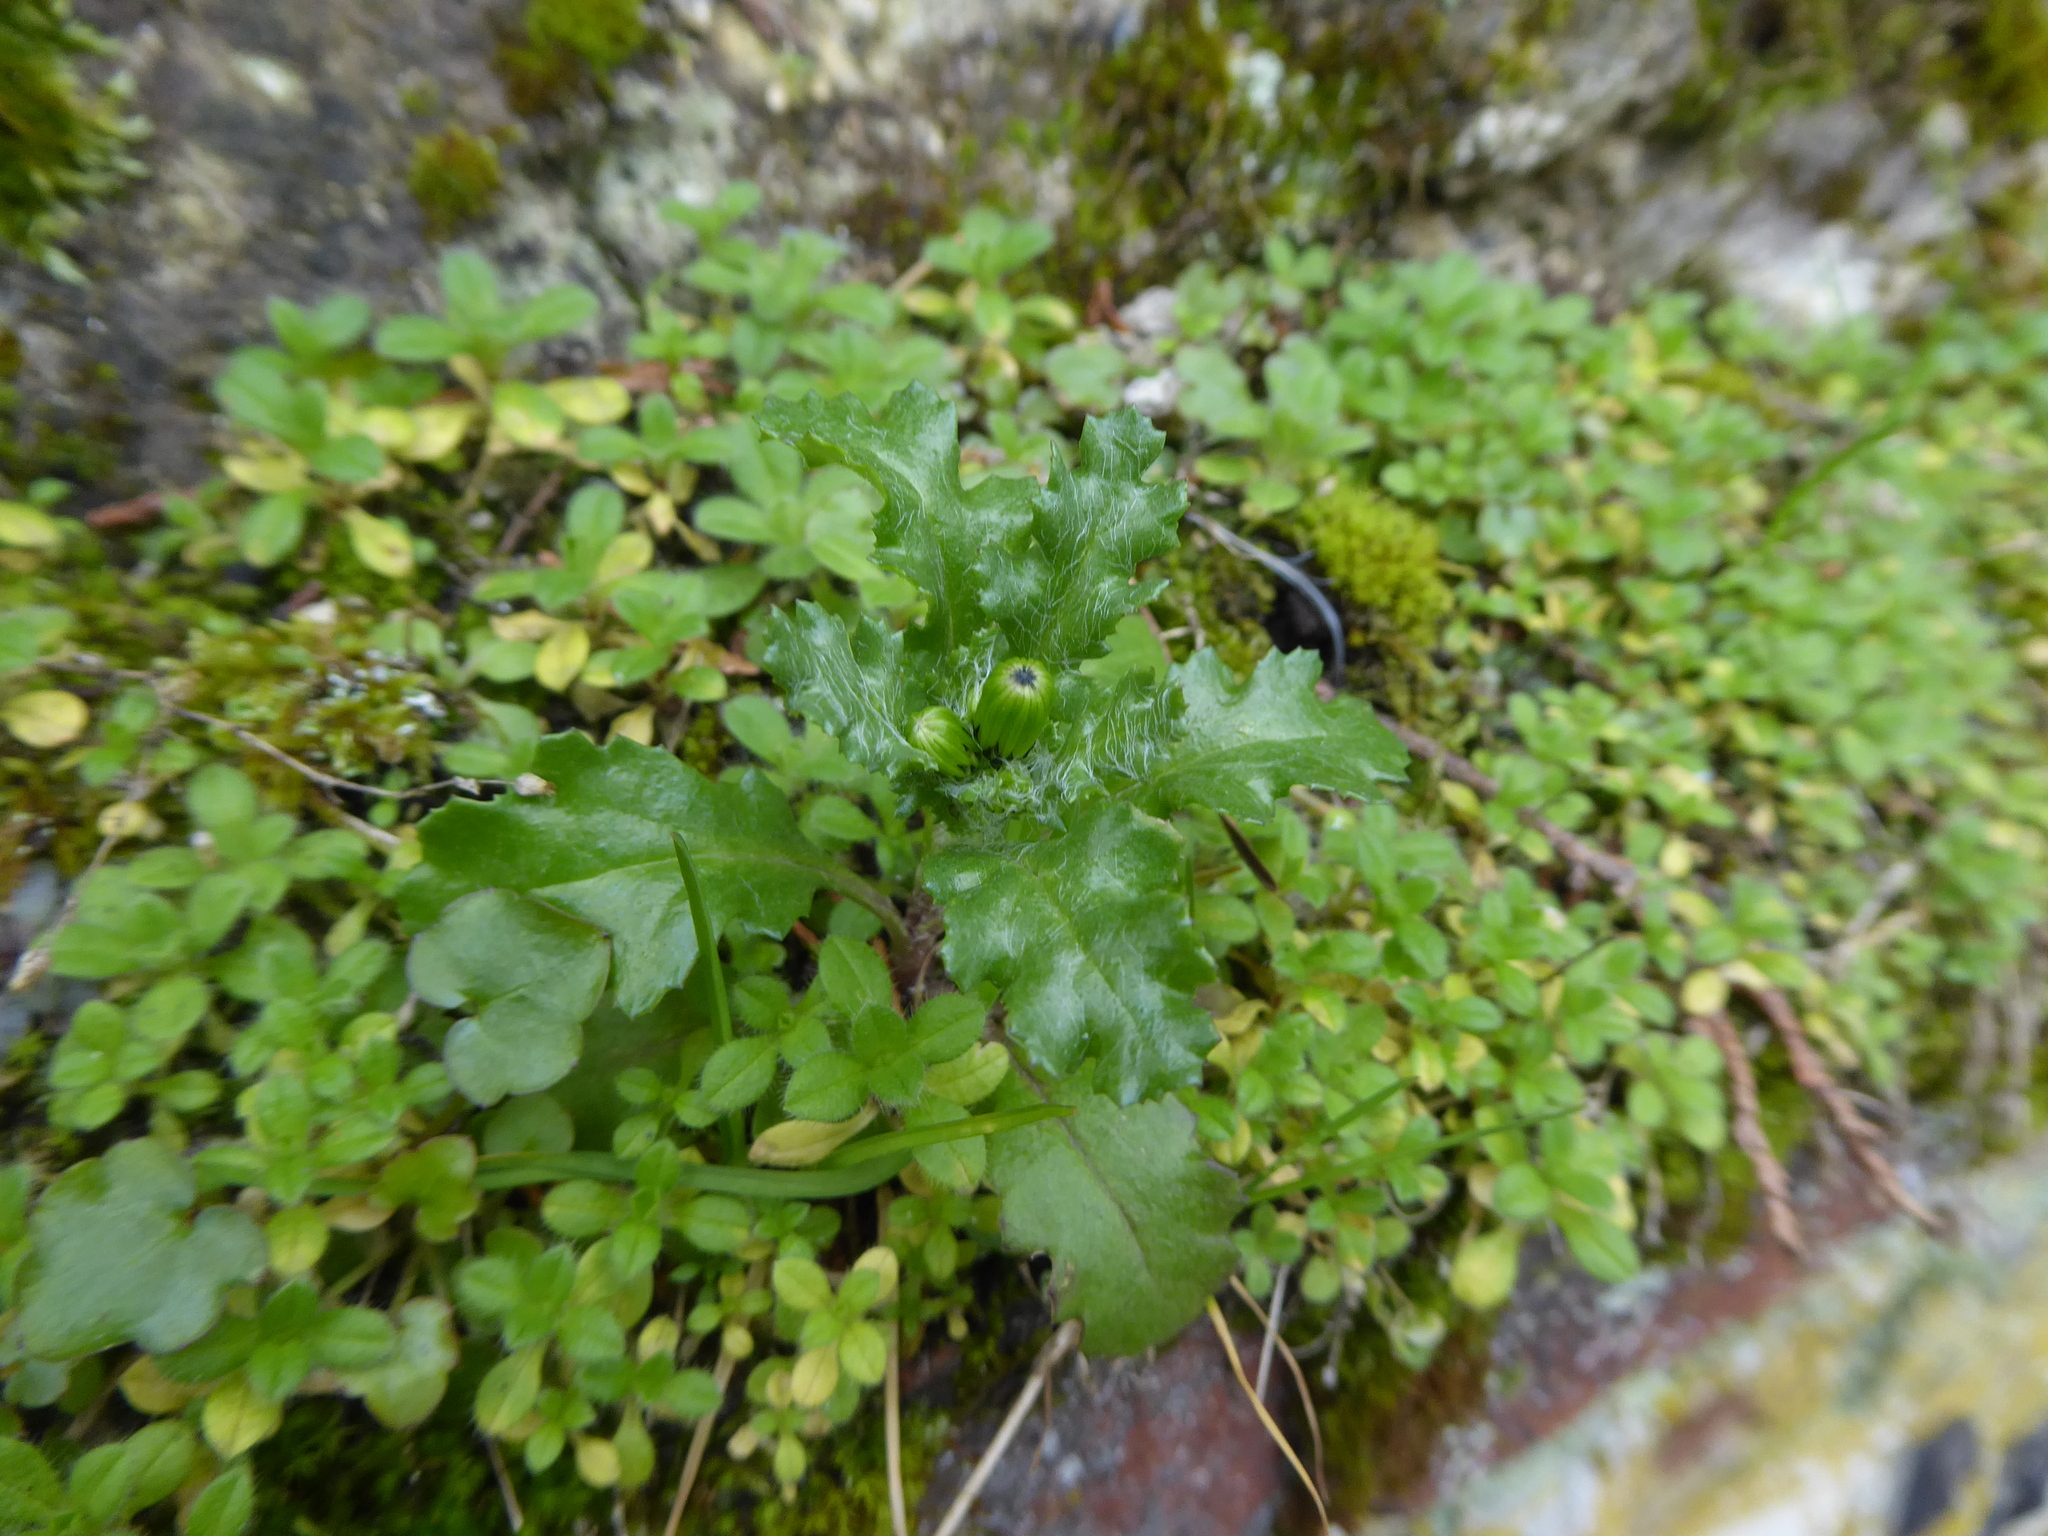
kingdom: Plantae
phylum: Tracheophyta
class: Magnoliopsida
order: Asterales
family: Asteraceae
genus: Senecio
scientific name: Senecio vulgaris
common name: Old-man-in-the-spring
